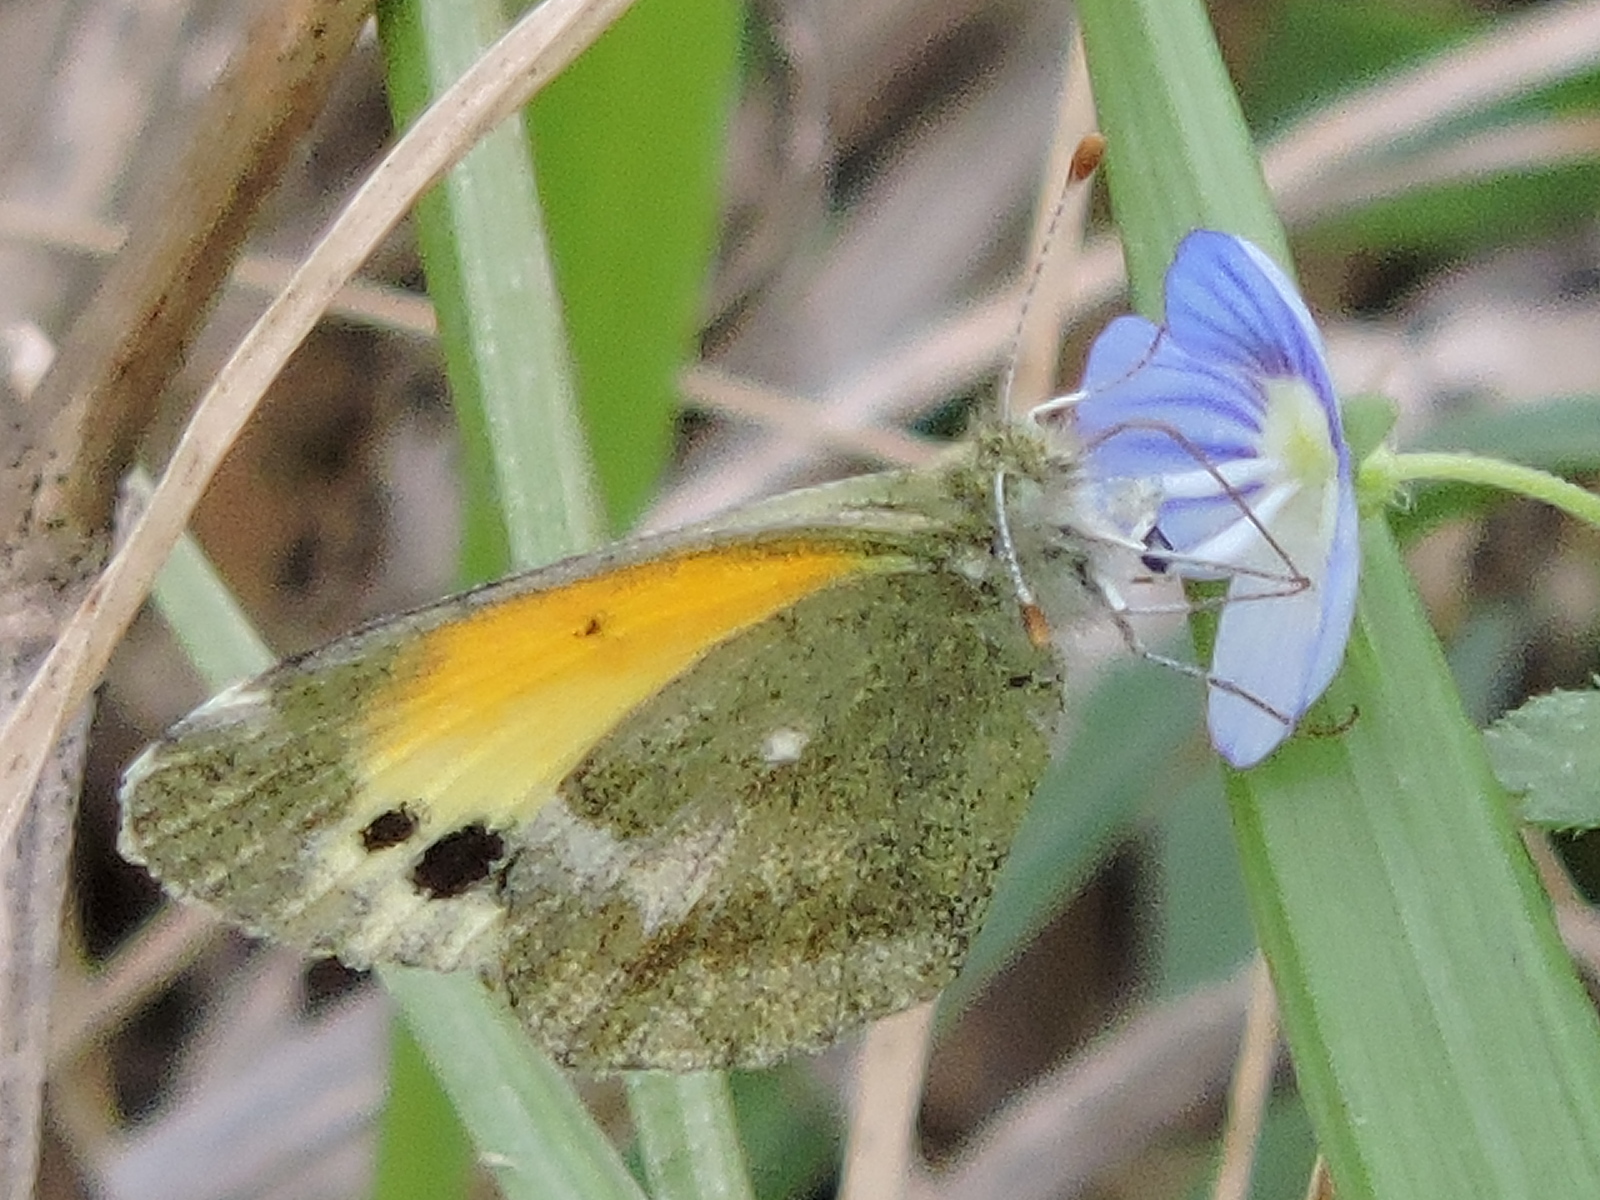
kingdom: Animalia
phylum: Arthropoda
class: Insecta
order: Lepidoptera
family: Pieridae
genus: Nathalis
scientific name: Nathalis iole
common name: Dainty sulphur
